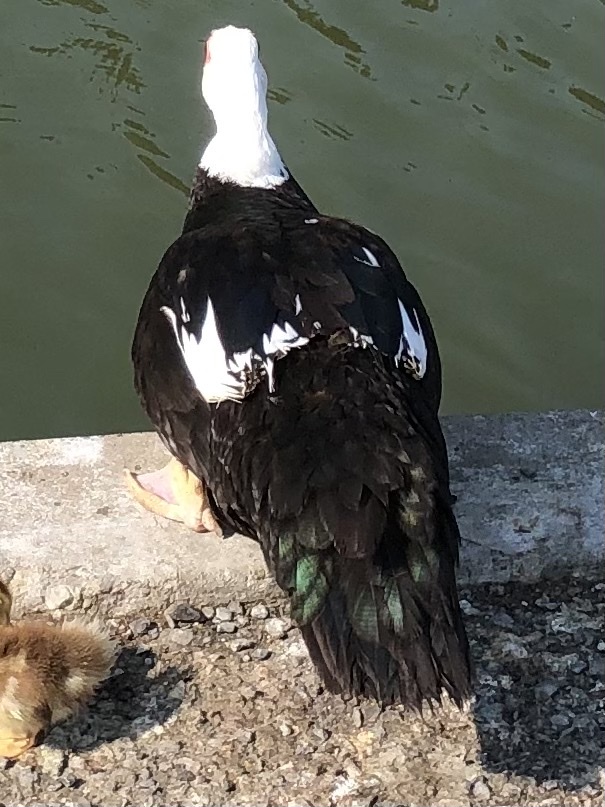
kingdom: Animalia
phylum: Chordata
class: Aves
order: Anseriformes
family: Anatidae
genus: Cairina
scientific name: Cairina moschata
